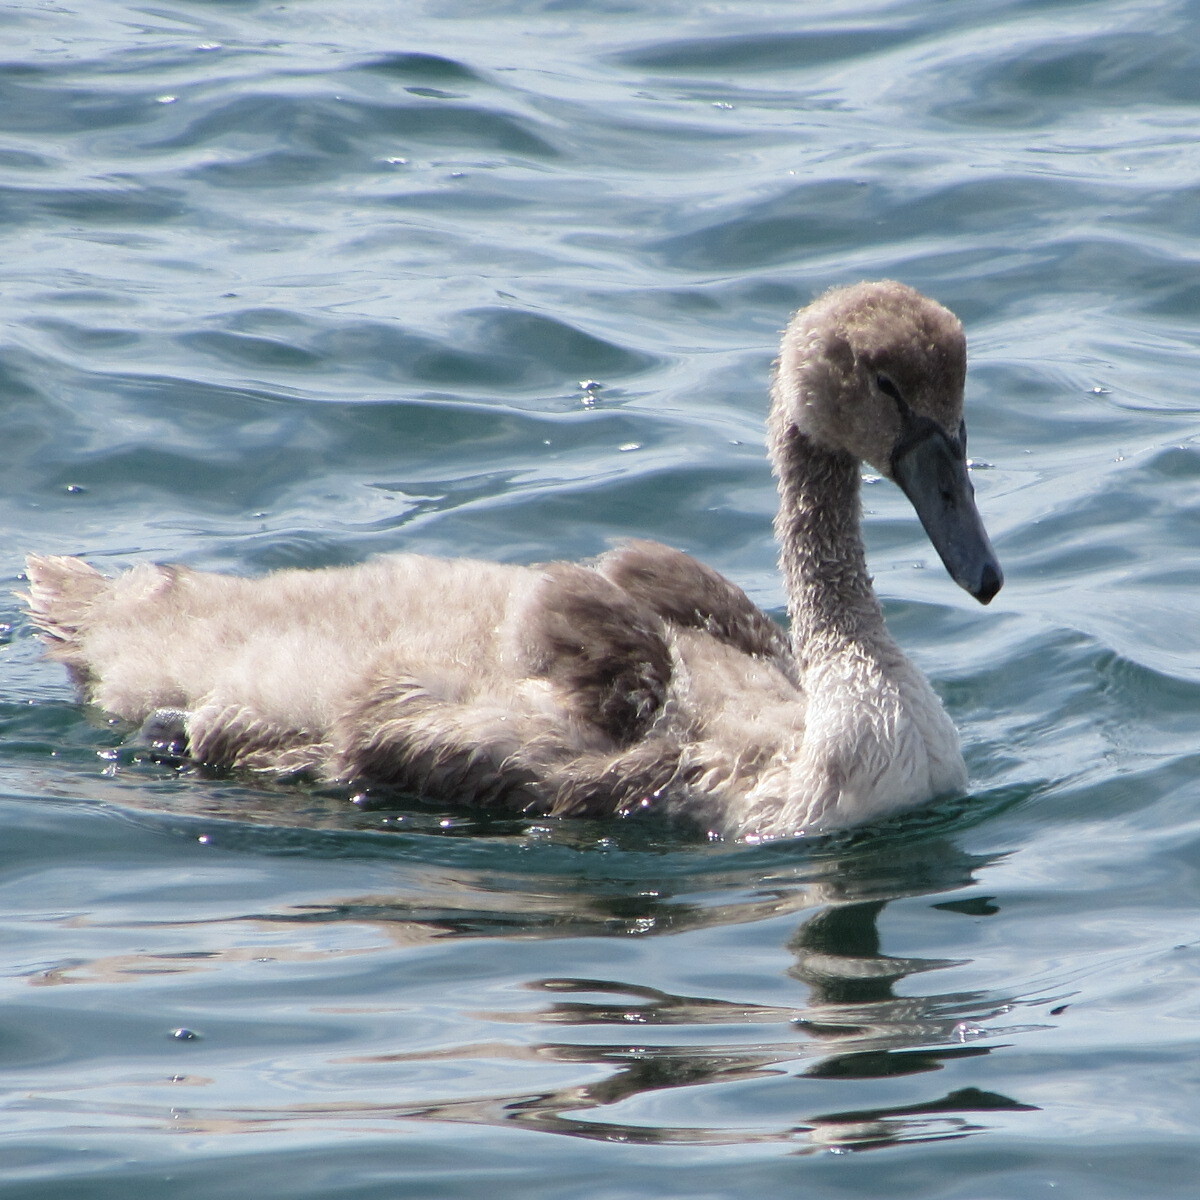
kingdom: Animalia
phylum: Chordata
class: Aves
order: Anseriformes
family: Anatidae
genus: Cygnus
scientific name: Cygnus olor
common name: Mute swan
